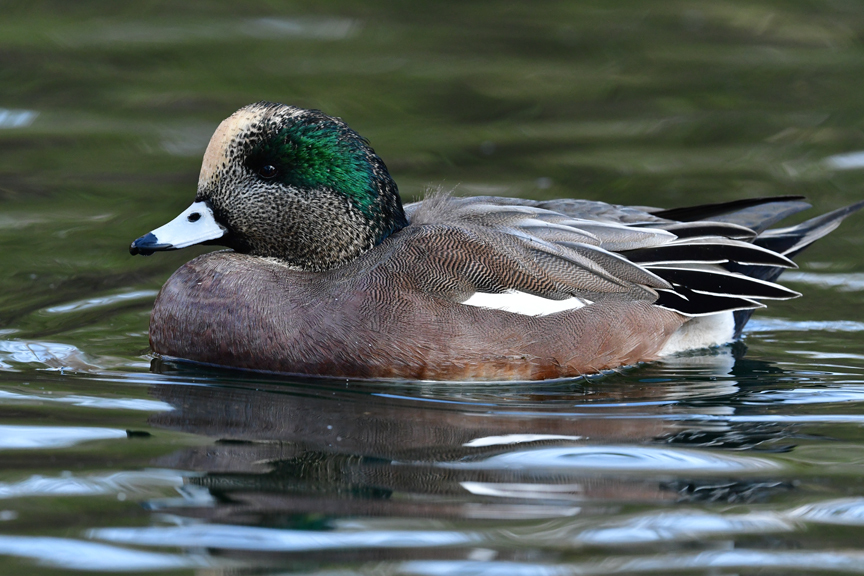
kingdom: Animalia
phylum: Chordata
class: Aves
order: Anseriformes
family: Anatidae
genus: Mareca
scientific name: Mareca americana
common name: American wigeon
